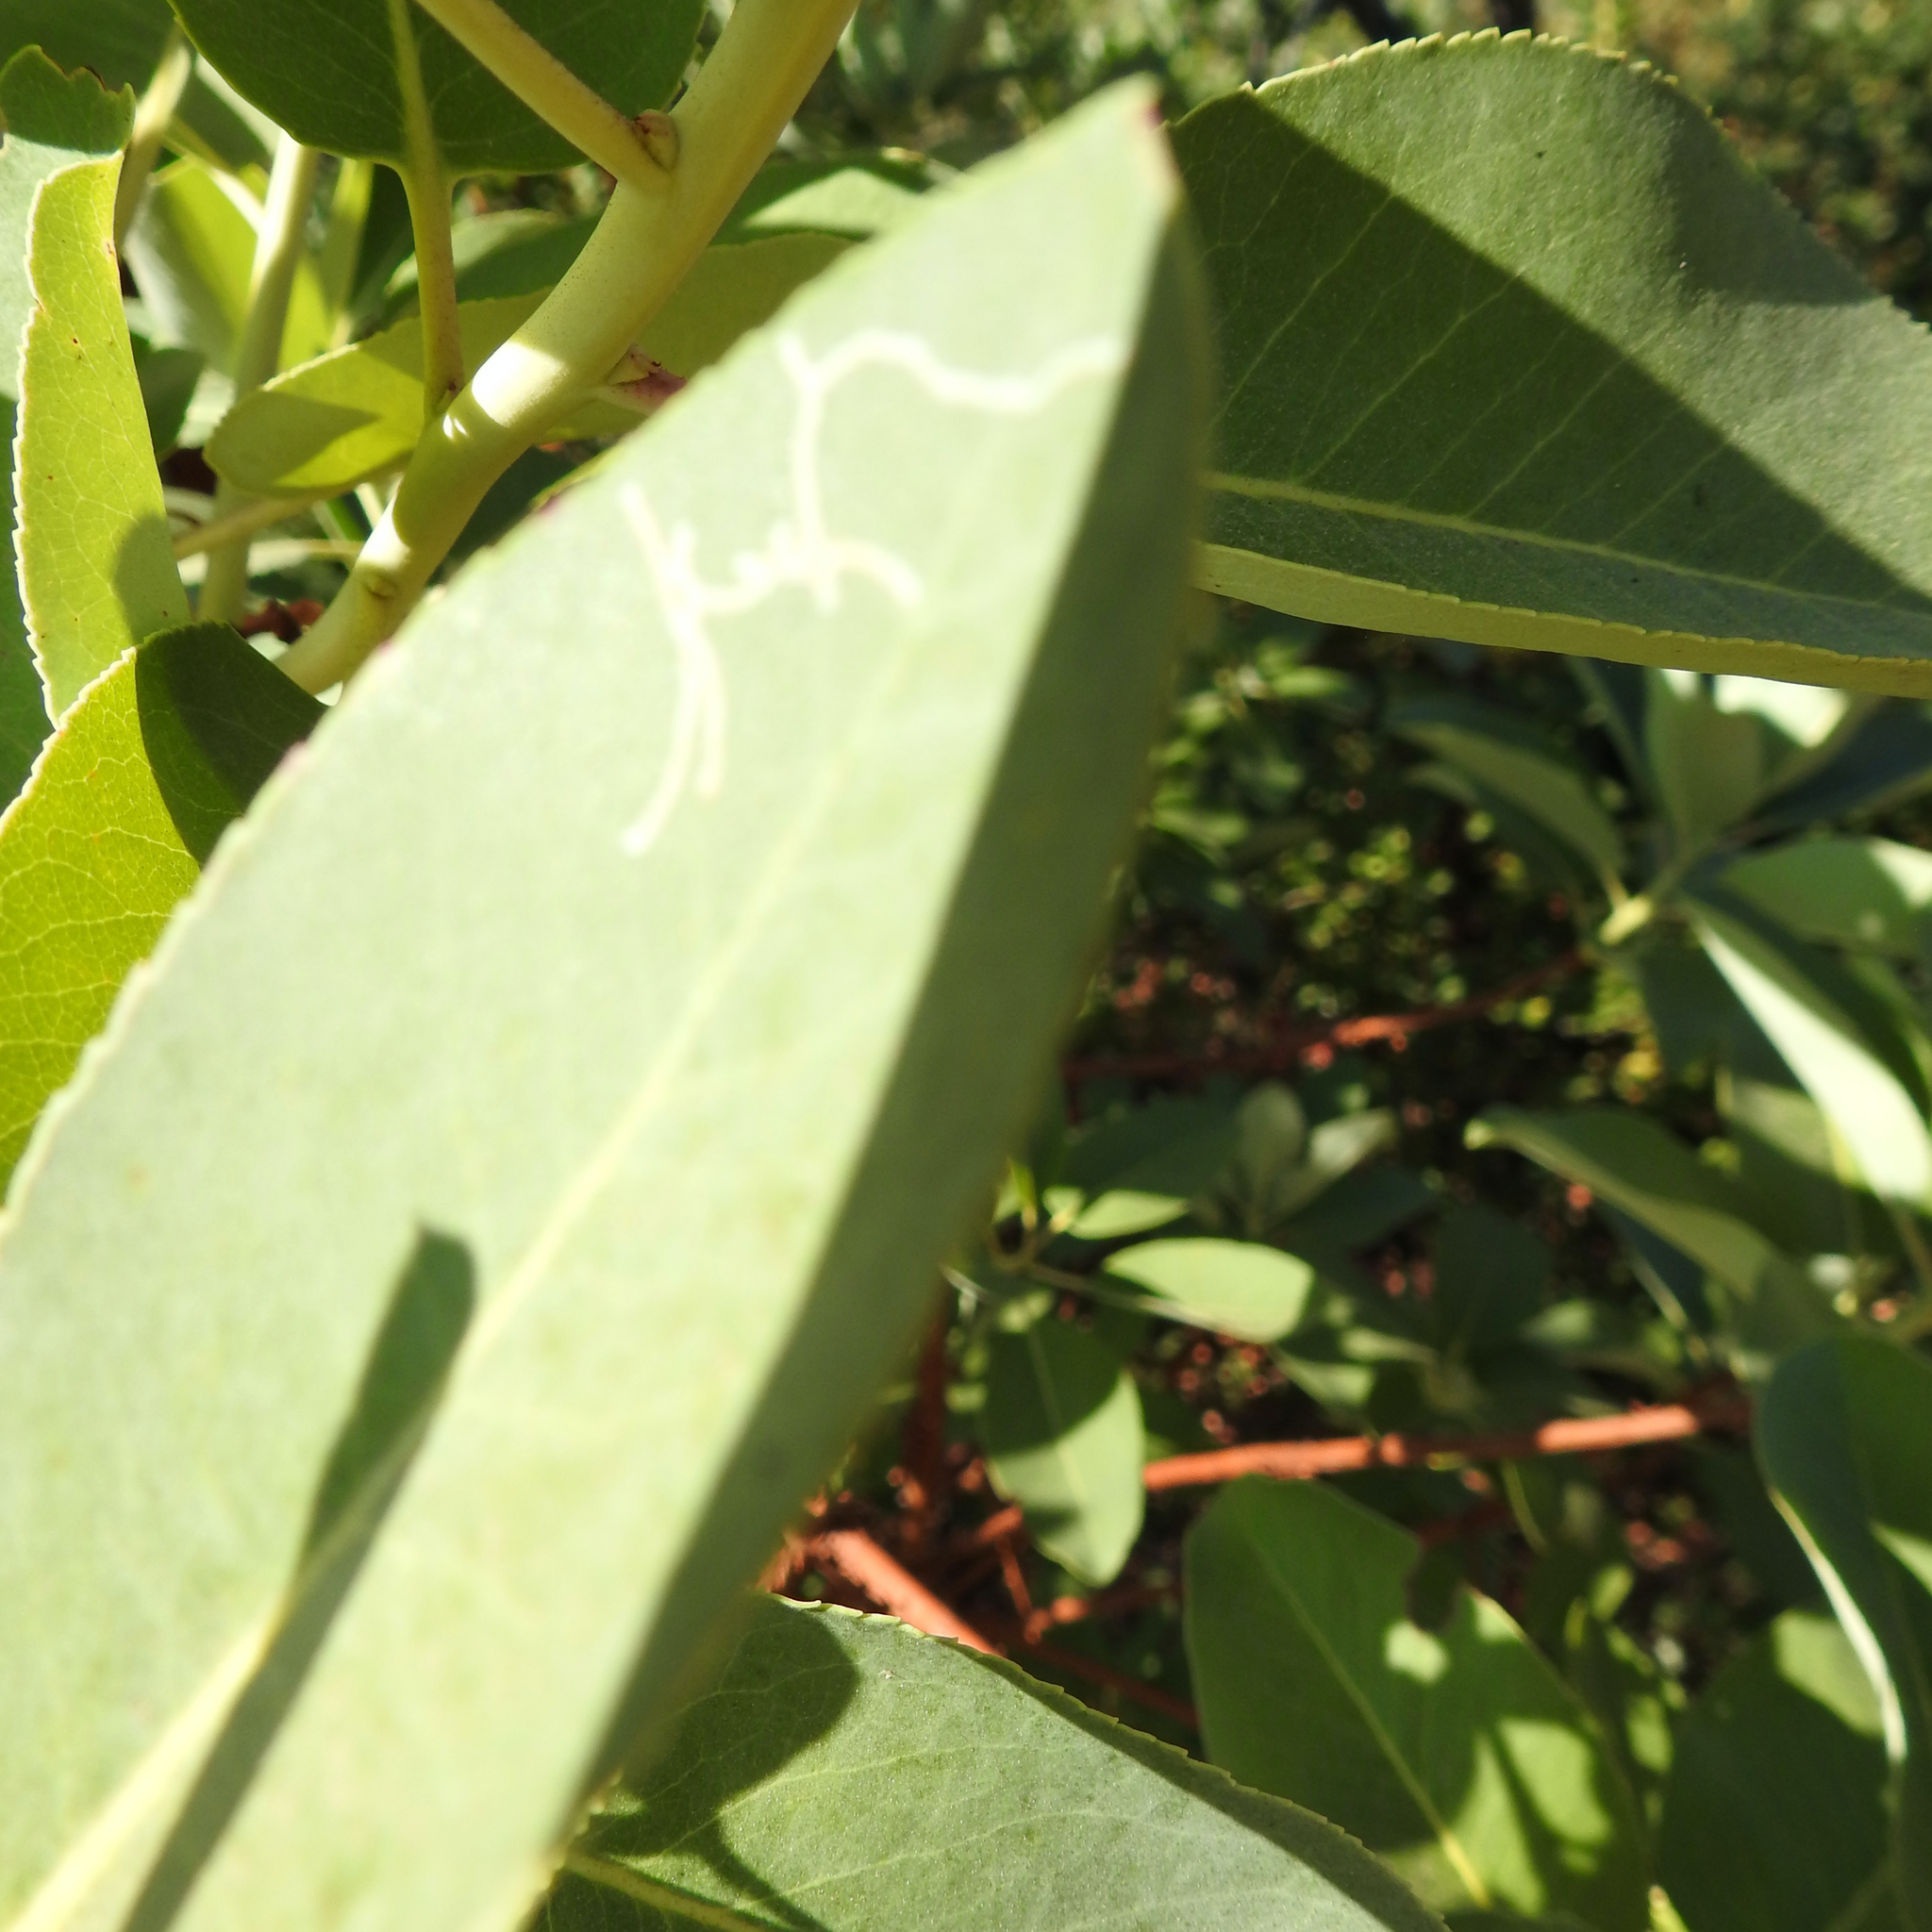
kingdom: Animalia
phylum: Arthropoda
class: Insecta
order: Lepidoptera
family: Gracillariidae
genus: Marmara
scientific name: Marmara arbutiella
